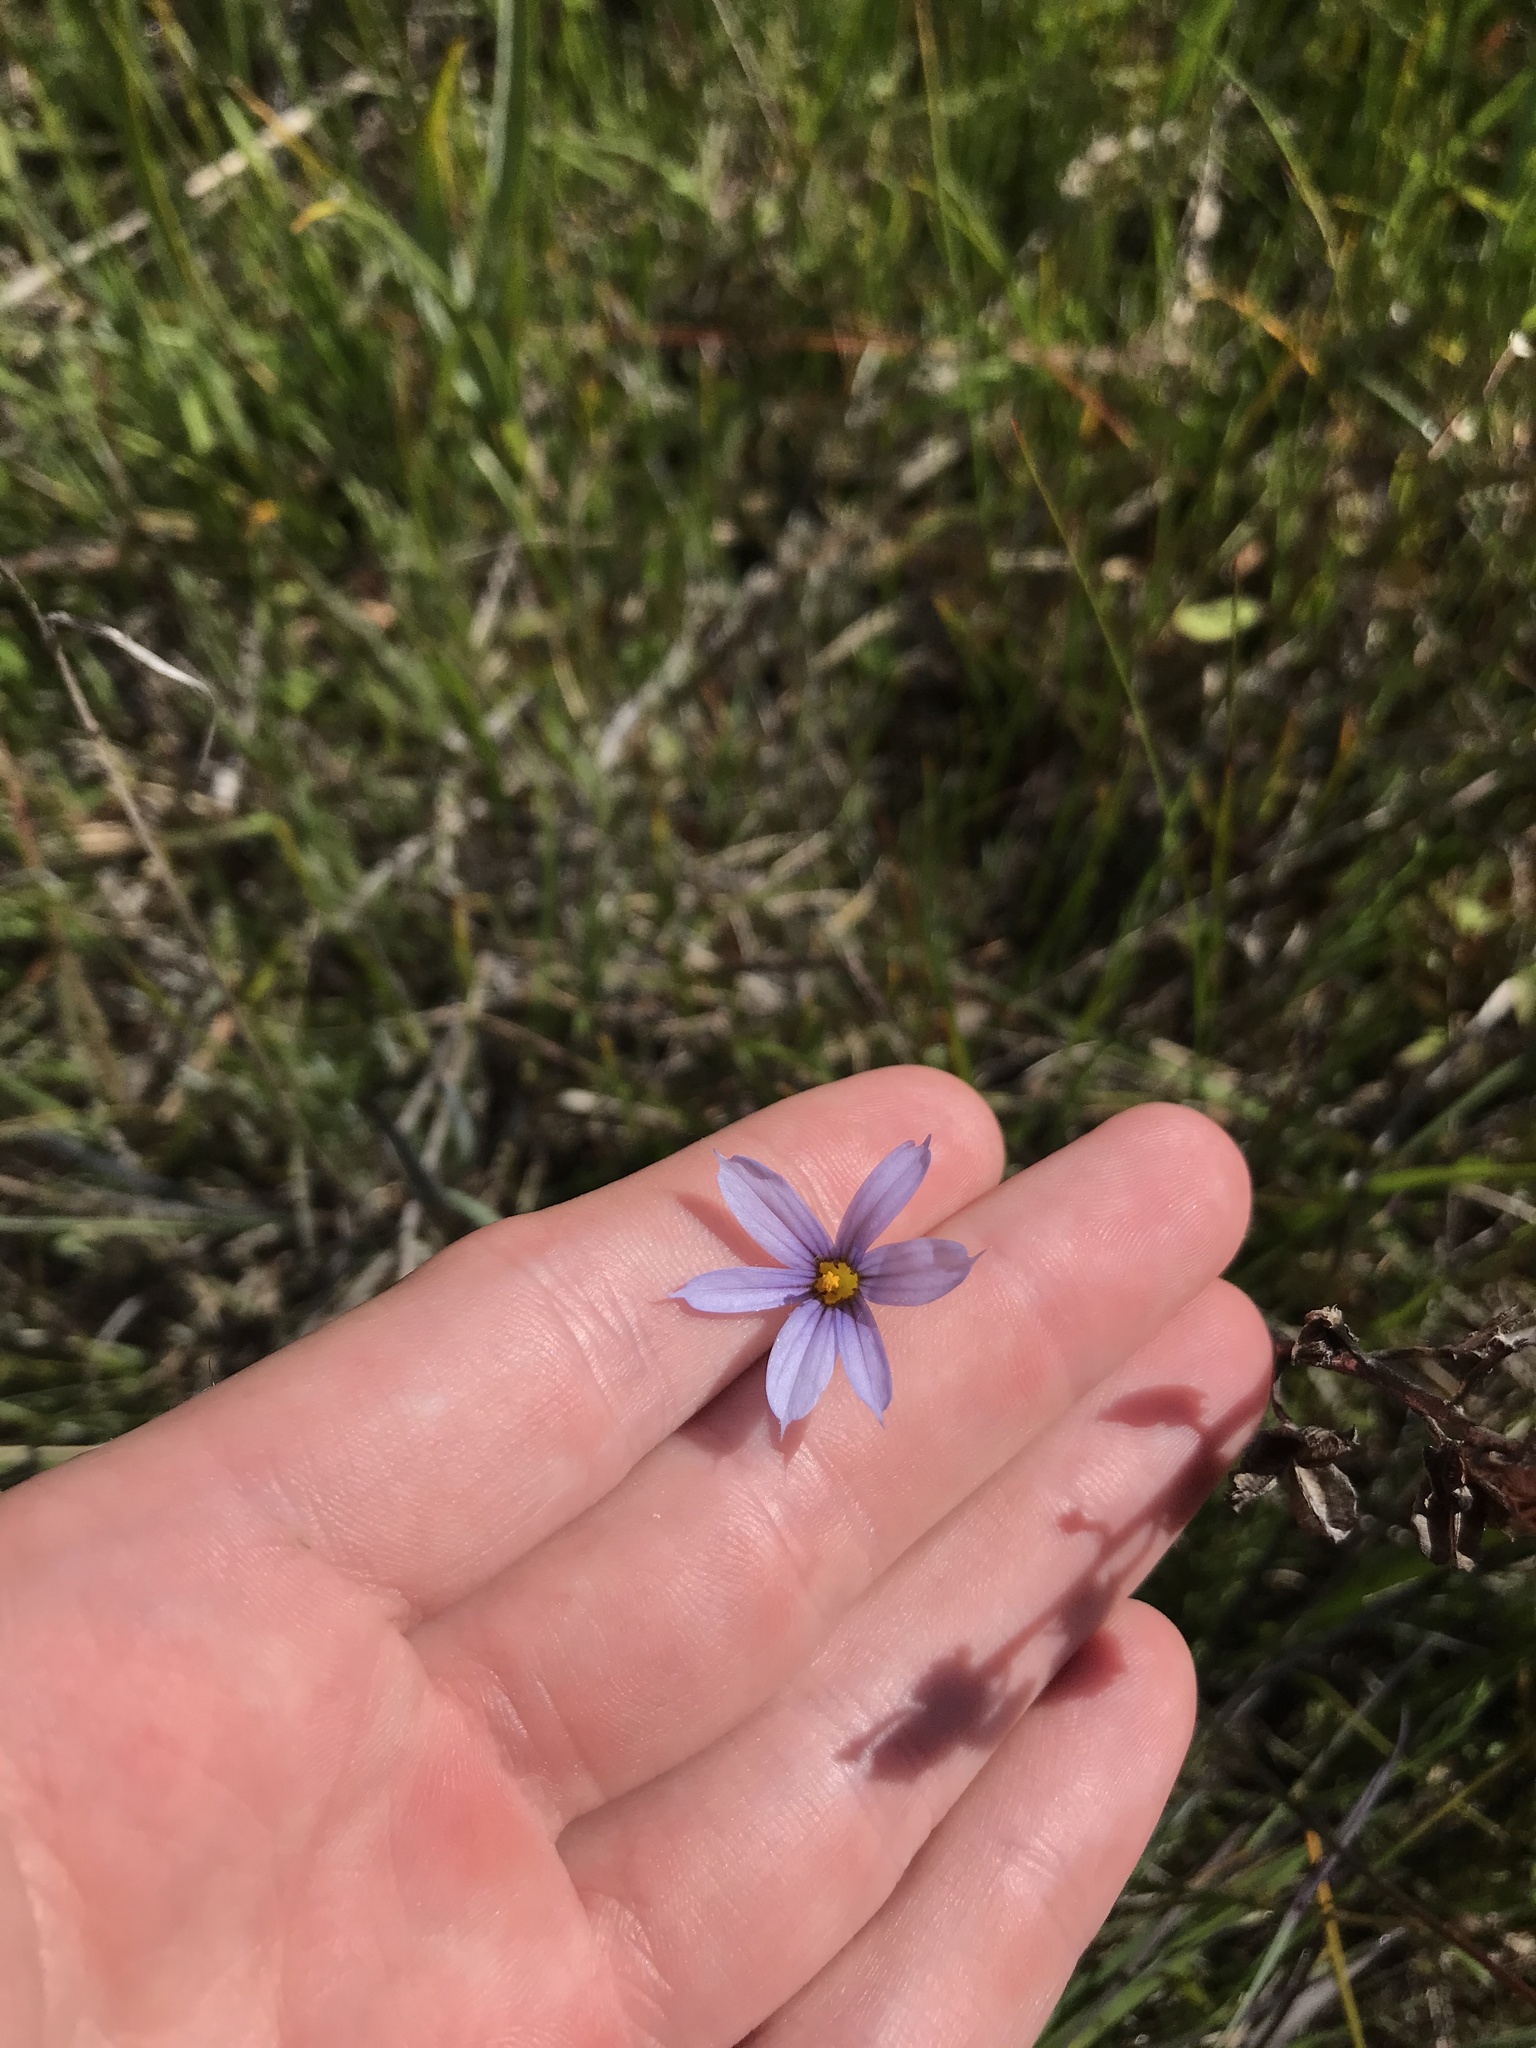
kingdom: Plantae
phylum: Tracheophyta
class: Liliopsida
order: Asparagales
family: Iridaceae
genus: Sisyrinchium
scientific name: Sisyrinchium idahoense
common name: Idaho blue-eyed-grass
